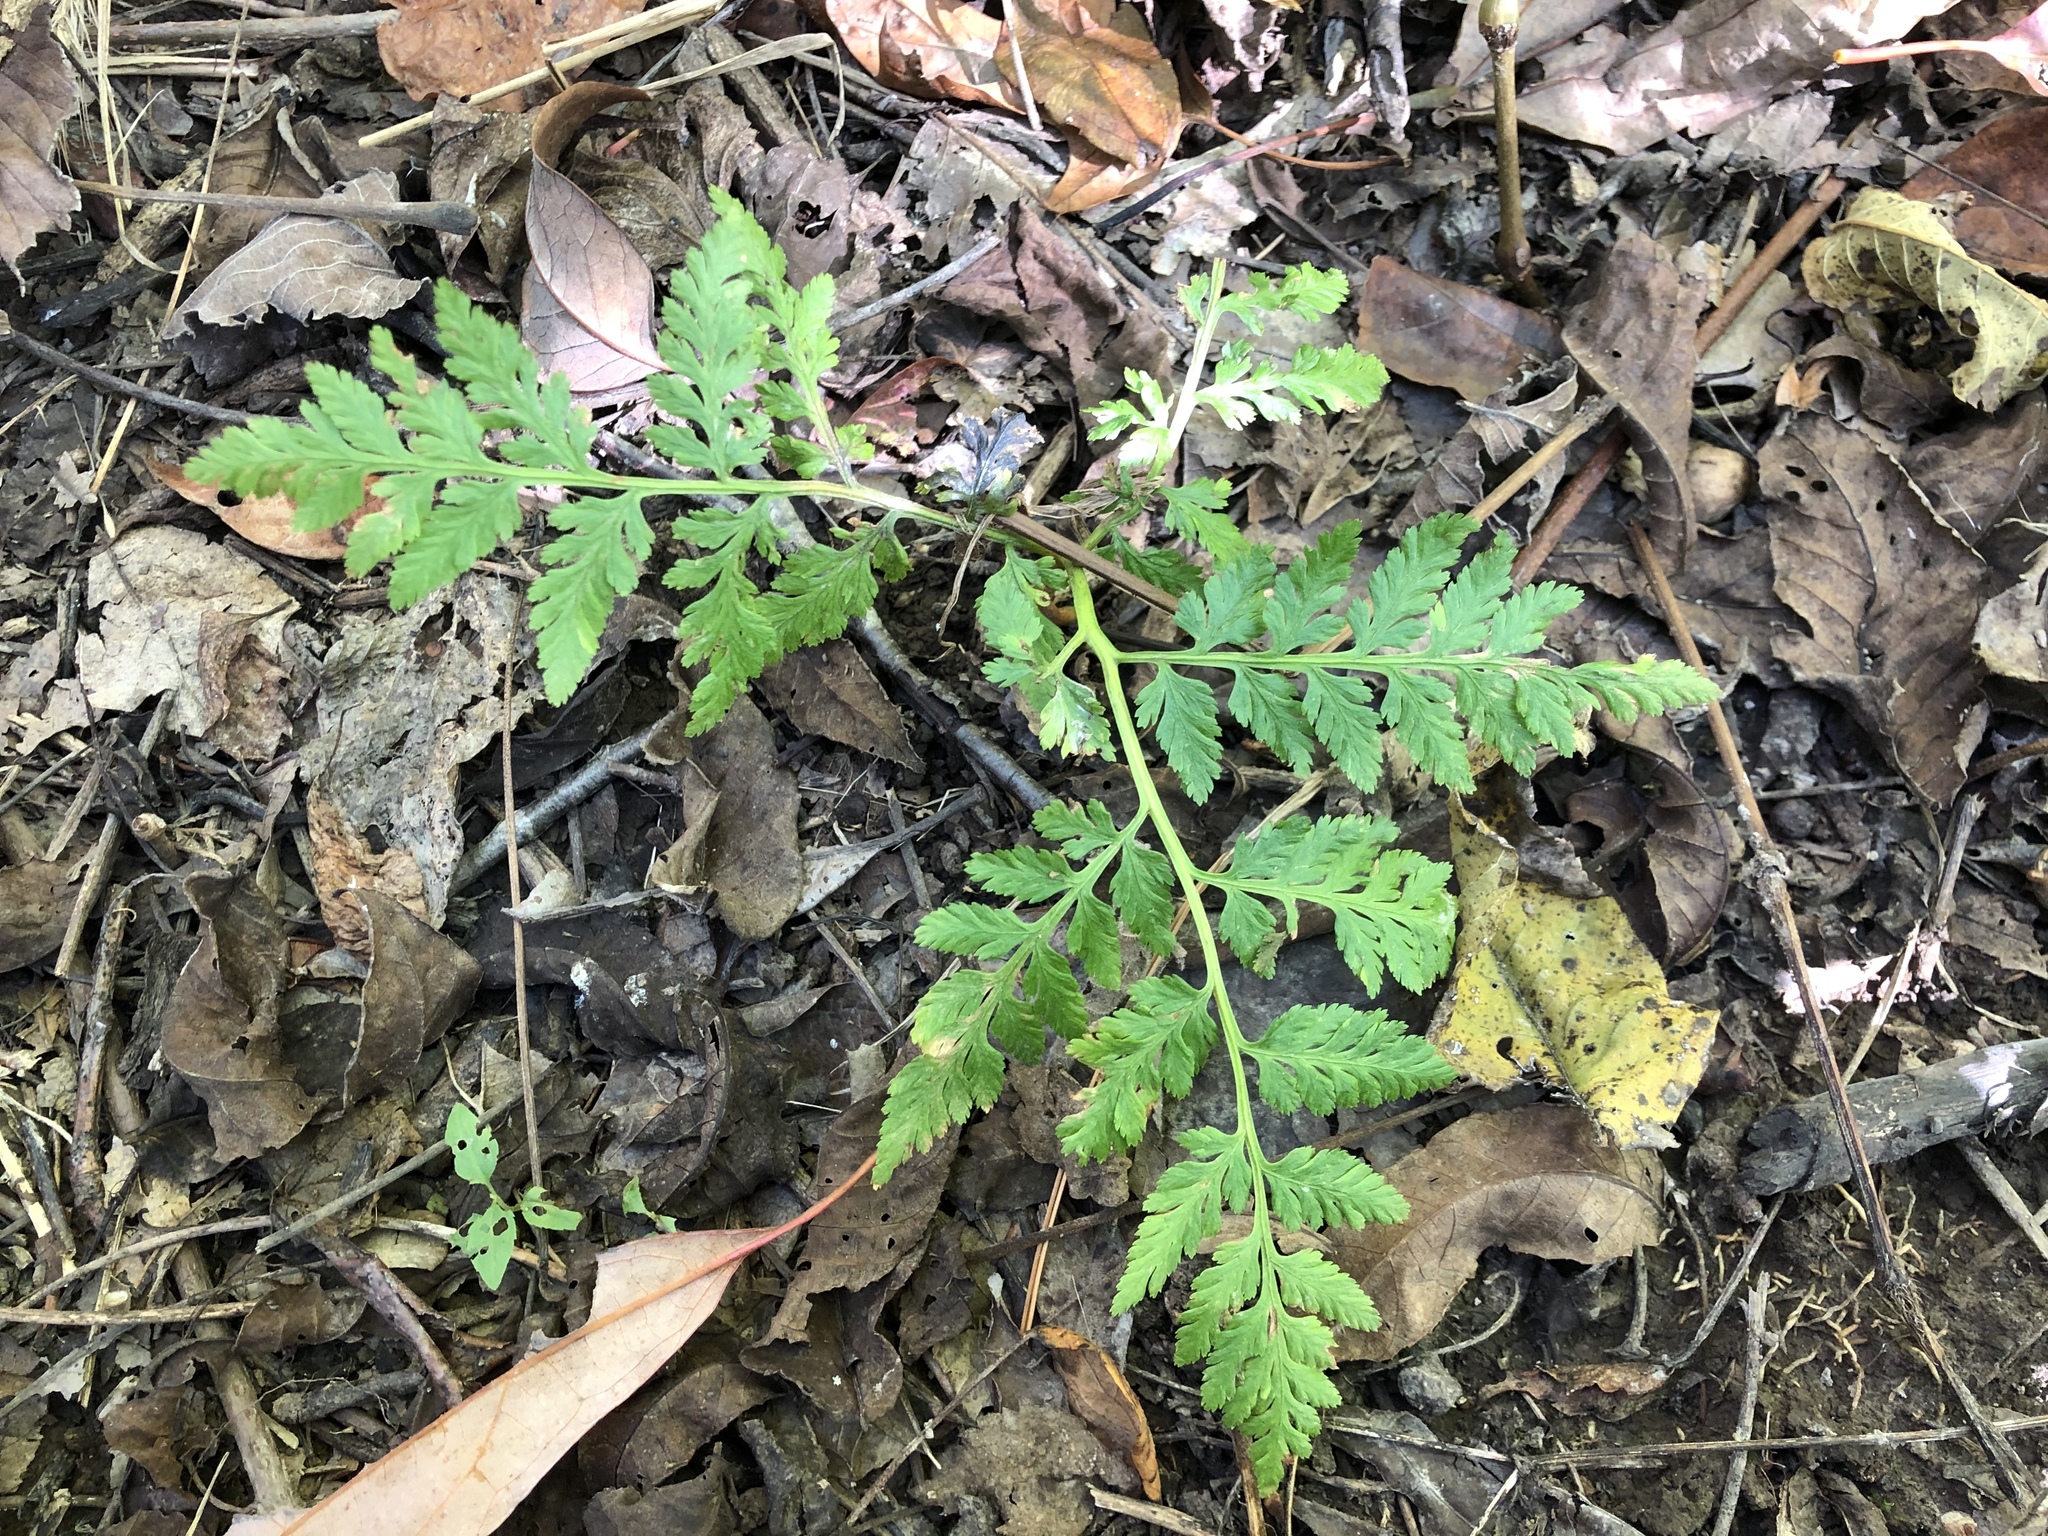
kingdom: Plantae
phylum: Tracheophyta
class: Polypodiopsida
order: Ophioglossales
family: Ophioglossaceae
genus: Botrypus
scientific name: Botrypus virginianus
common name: Common grapefern
